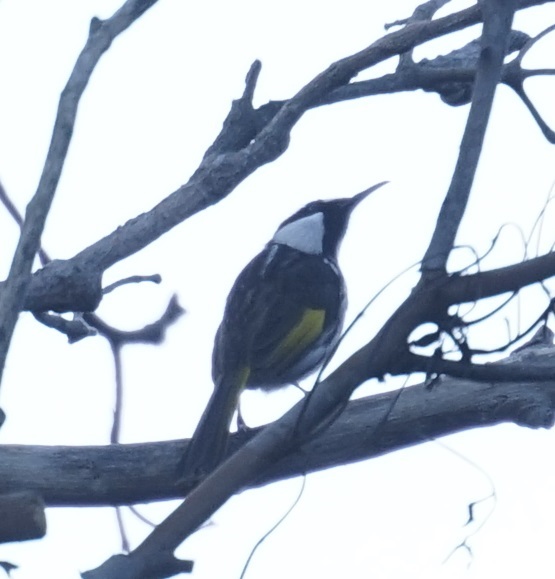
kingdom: Animalia
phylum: Chordata
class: Aves
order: Passeriformes
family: Meliphagidae
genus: Phylidonyris
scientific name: Phylidonyris niger
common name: White-cheeked honeyeater
